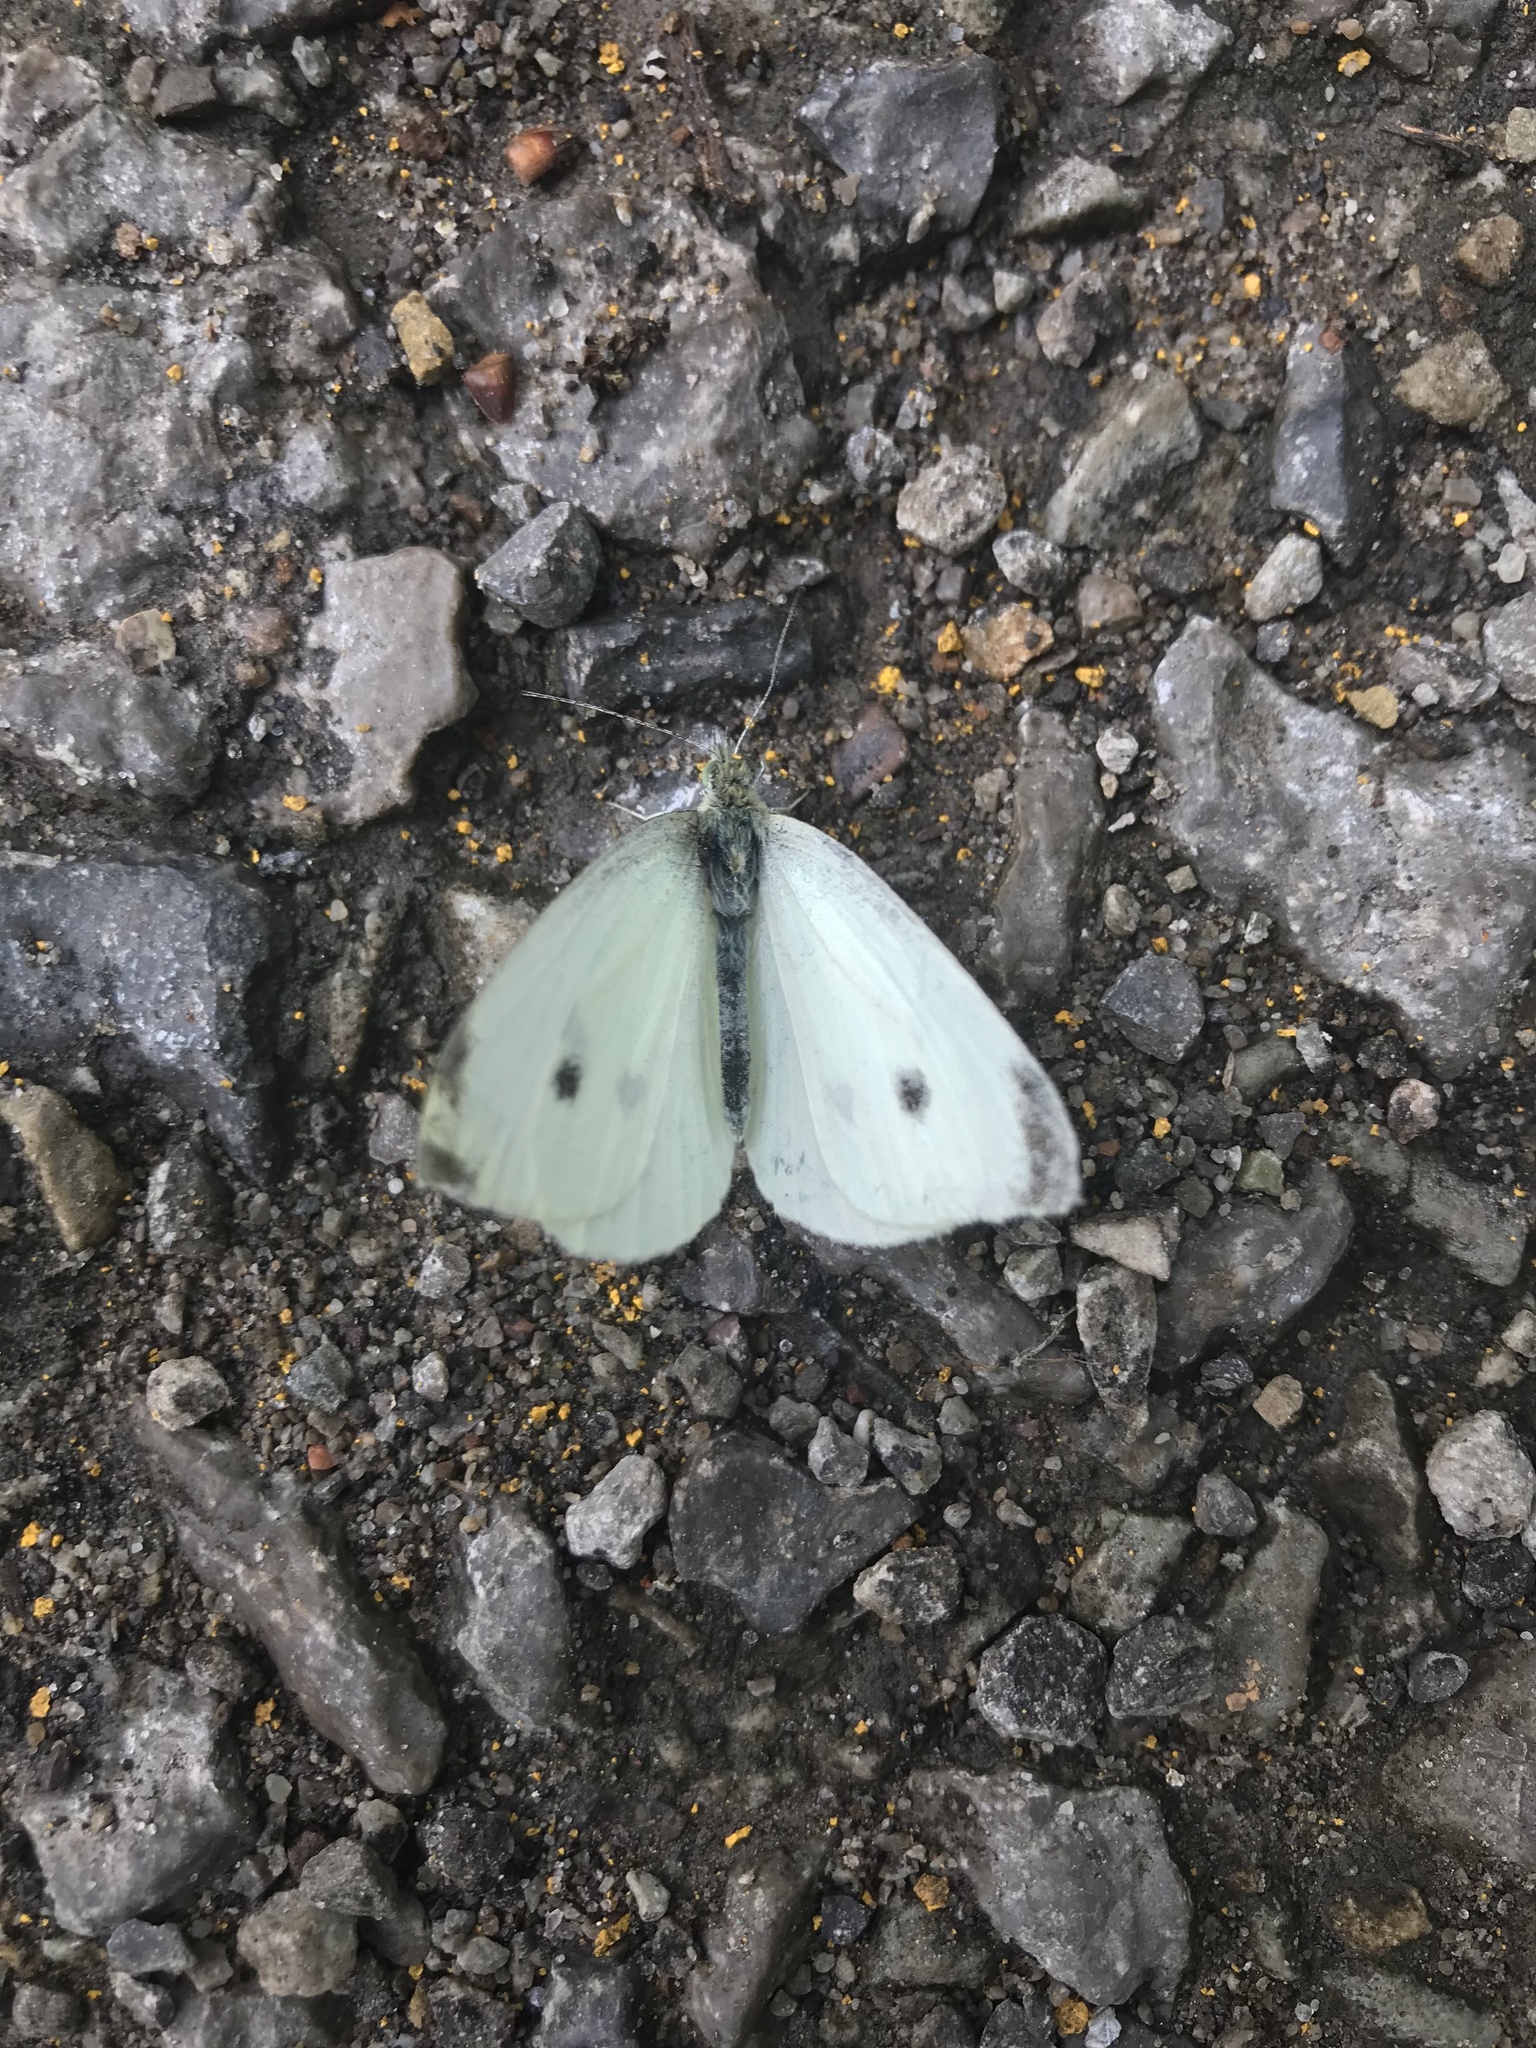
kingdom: Animalia
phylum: Arthropoda
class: Insecta
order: Lepidoptera
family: Pieridae
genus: Pieris
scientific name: Pieris rapae
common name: Small white
